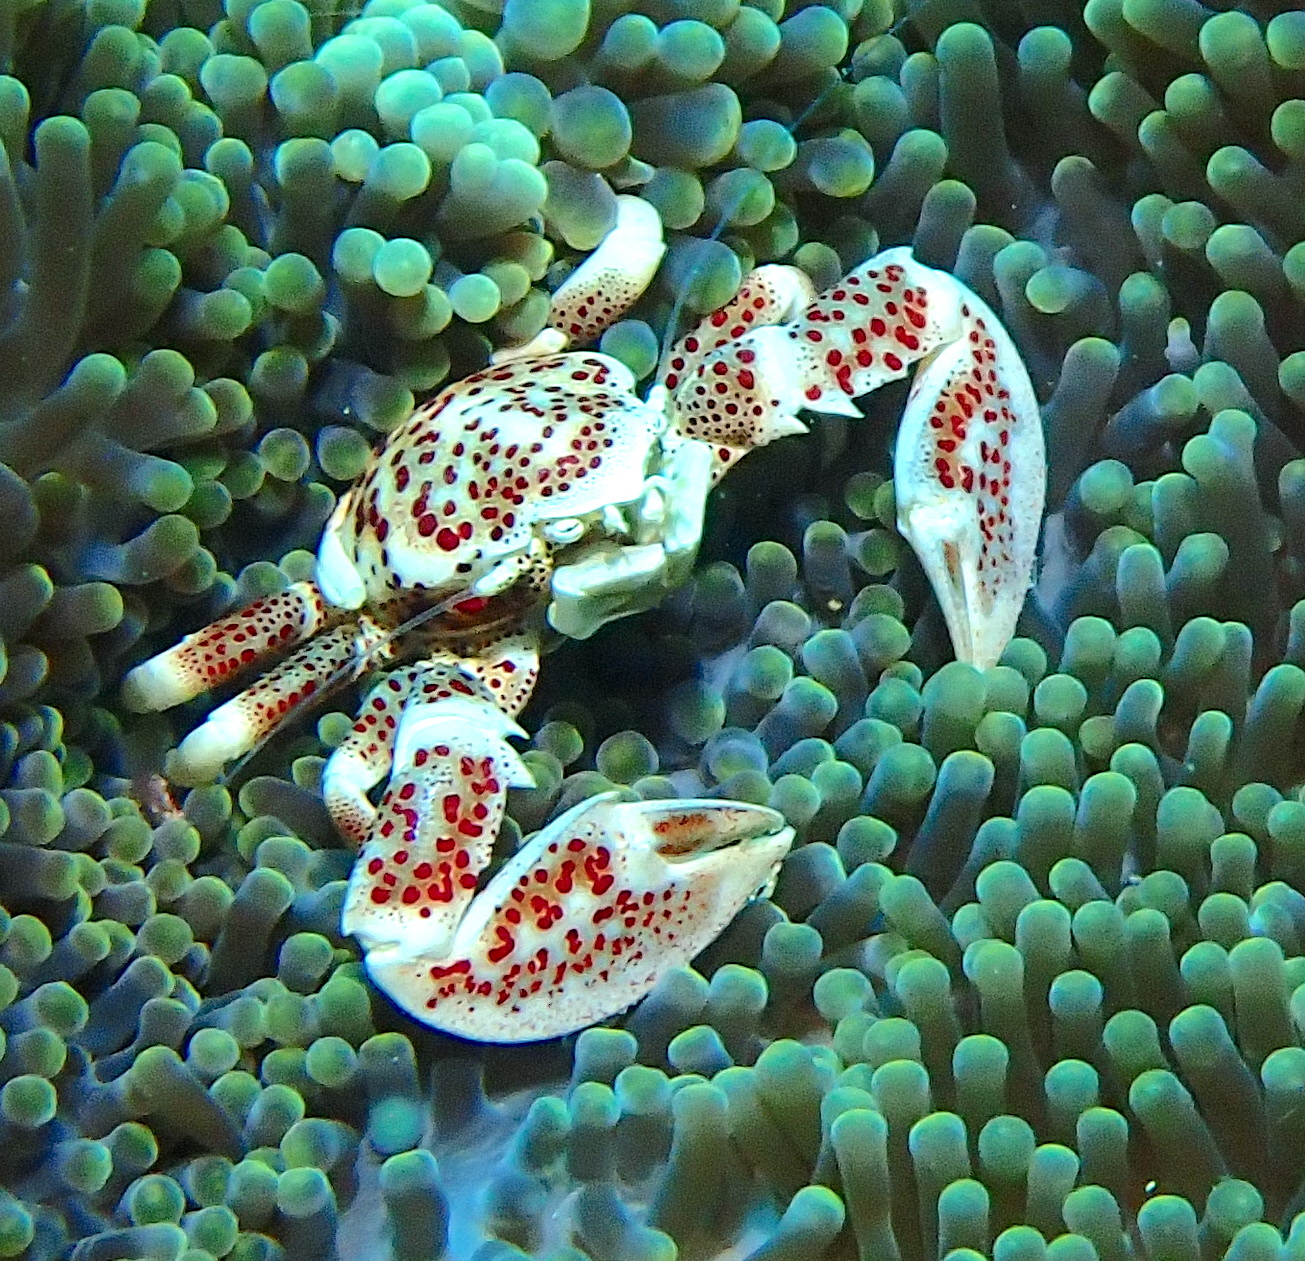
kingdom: Animalia
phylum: Arthropoda
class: Malacostraca
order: Decapoda
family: Porcellanidae
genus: Neopetrolisthes
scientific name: Neopetrolisthes maculatus
